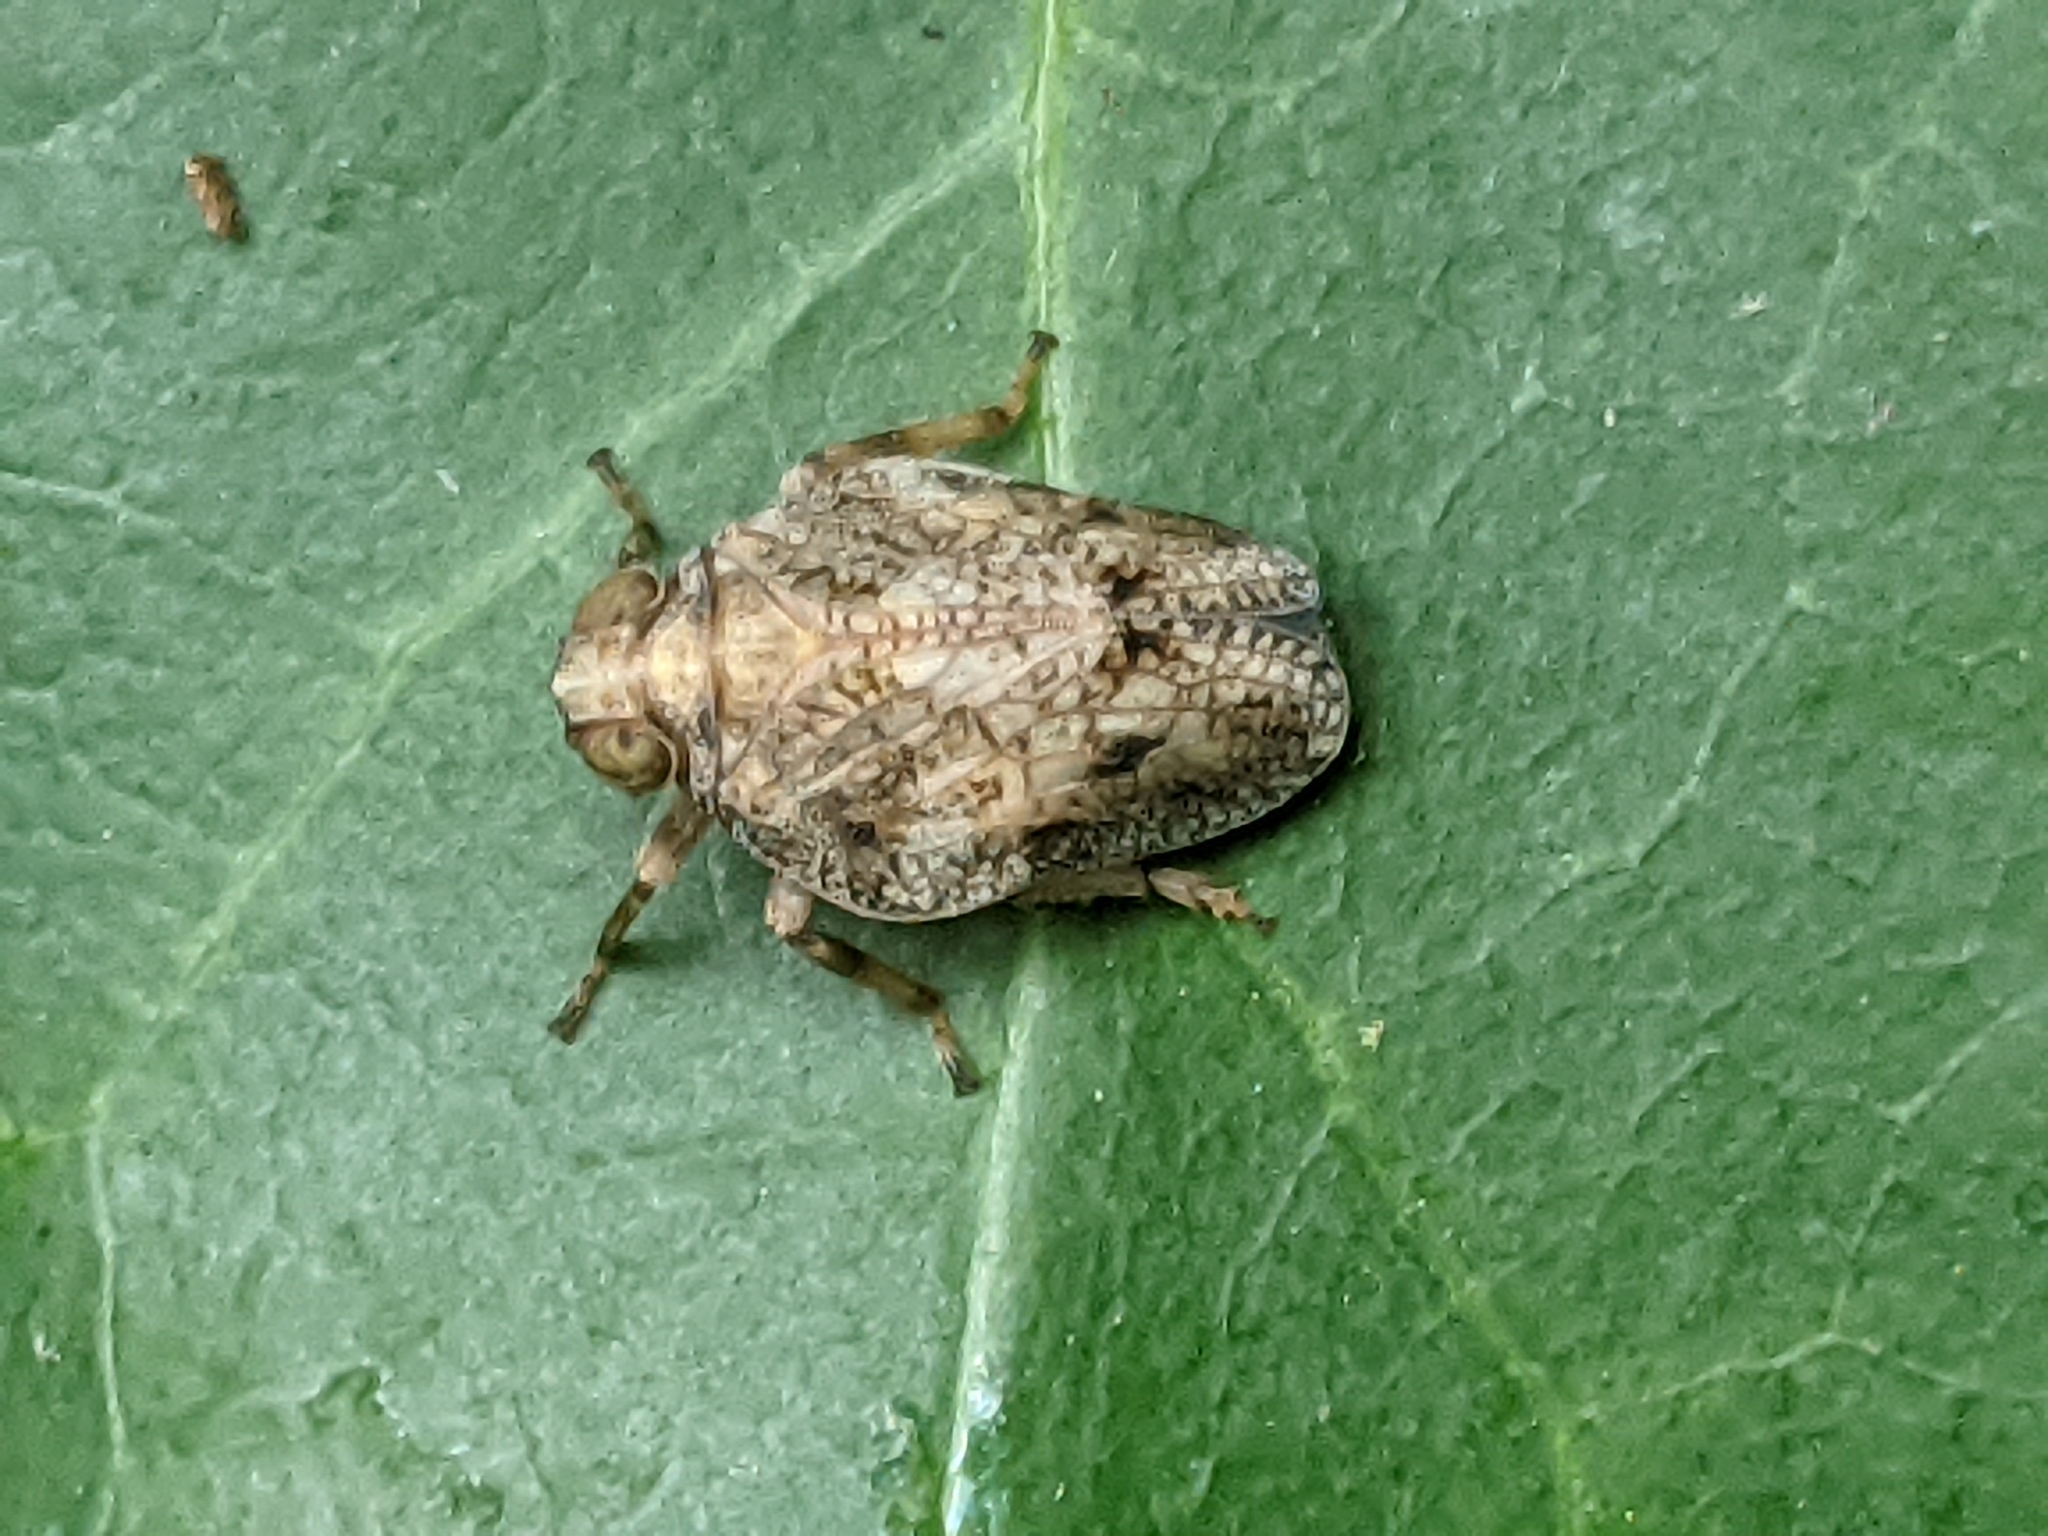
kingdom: Animalia
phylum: Arthropoda
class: Insecta
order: Hemiptera
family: Issidae
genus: Issus
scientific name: Issus coleoptratus
